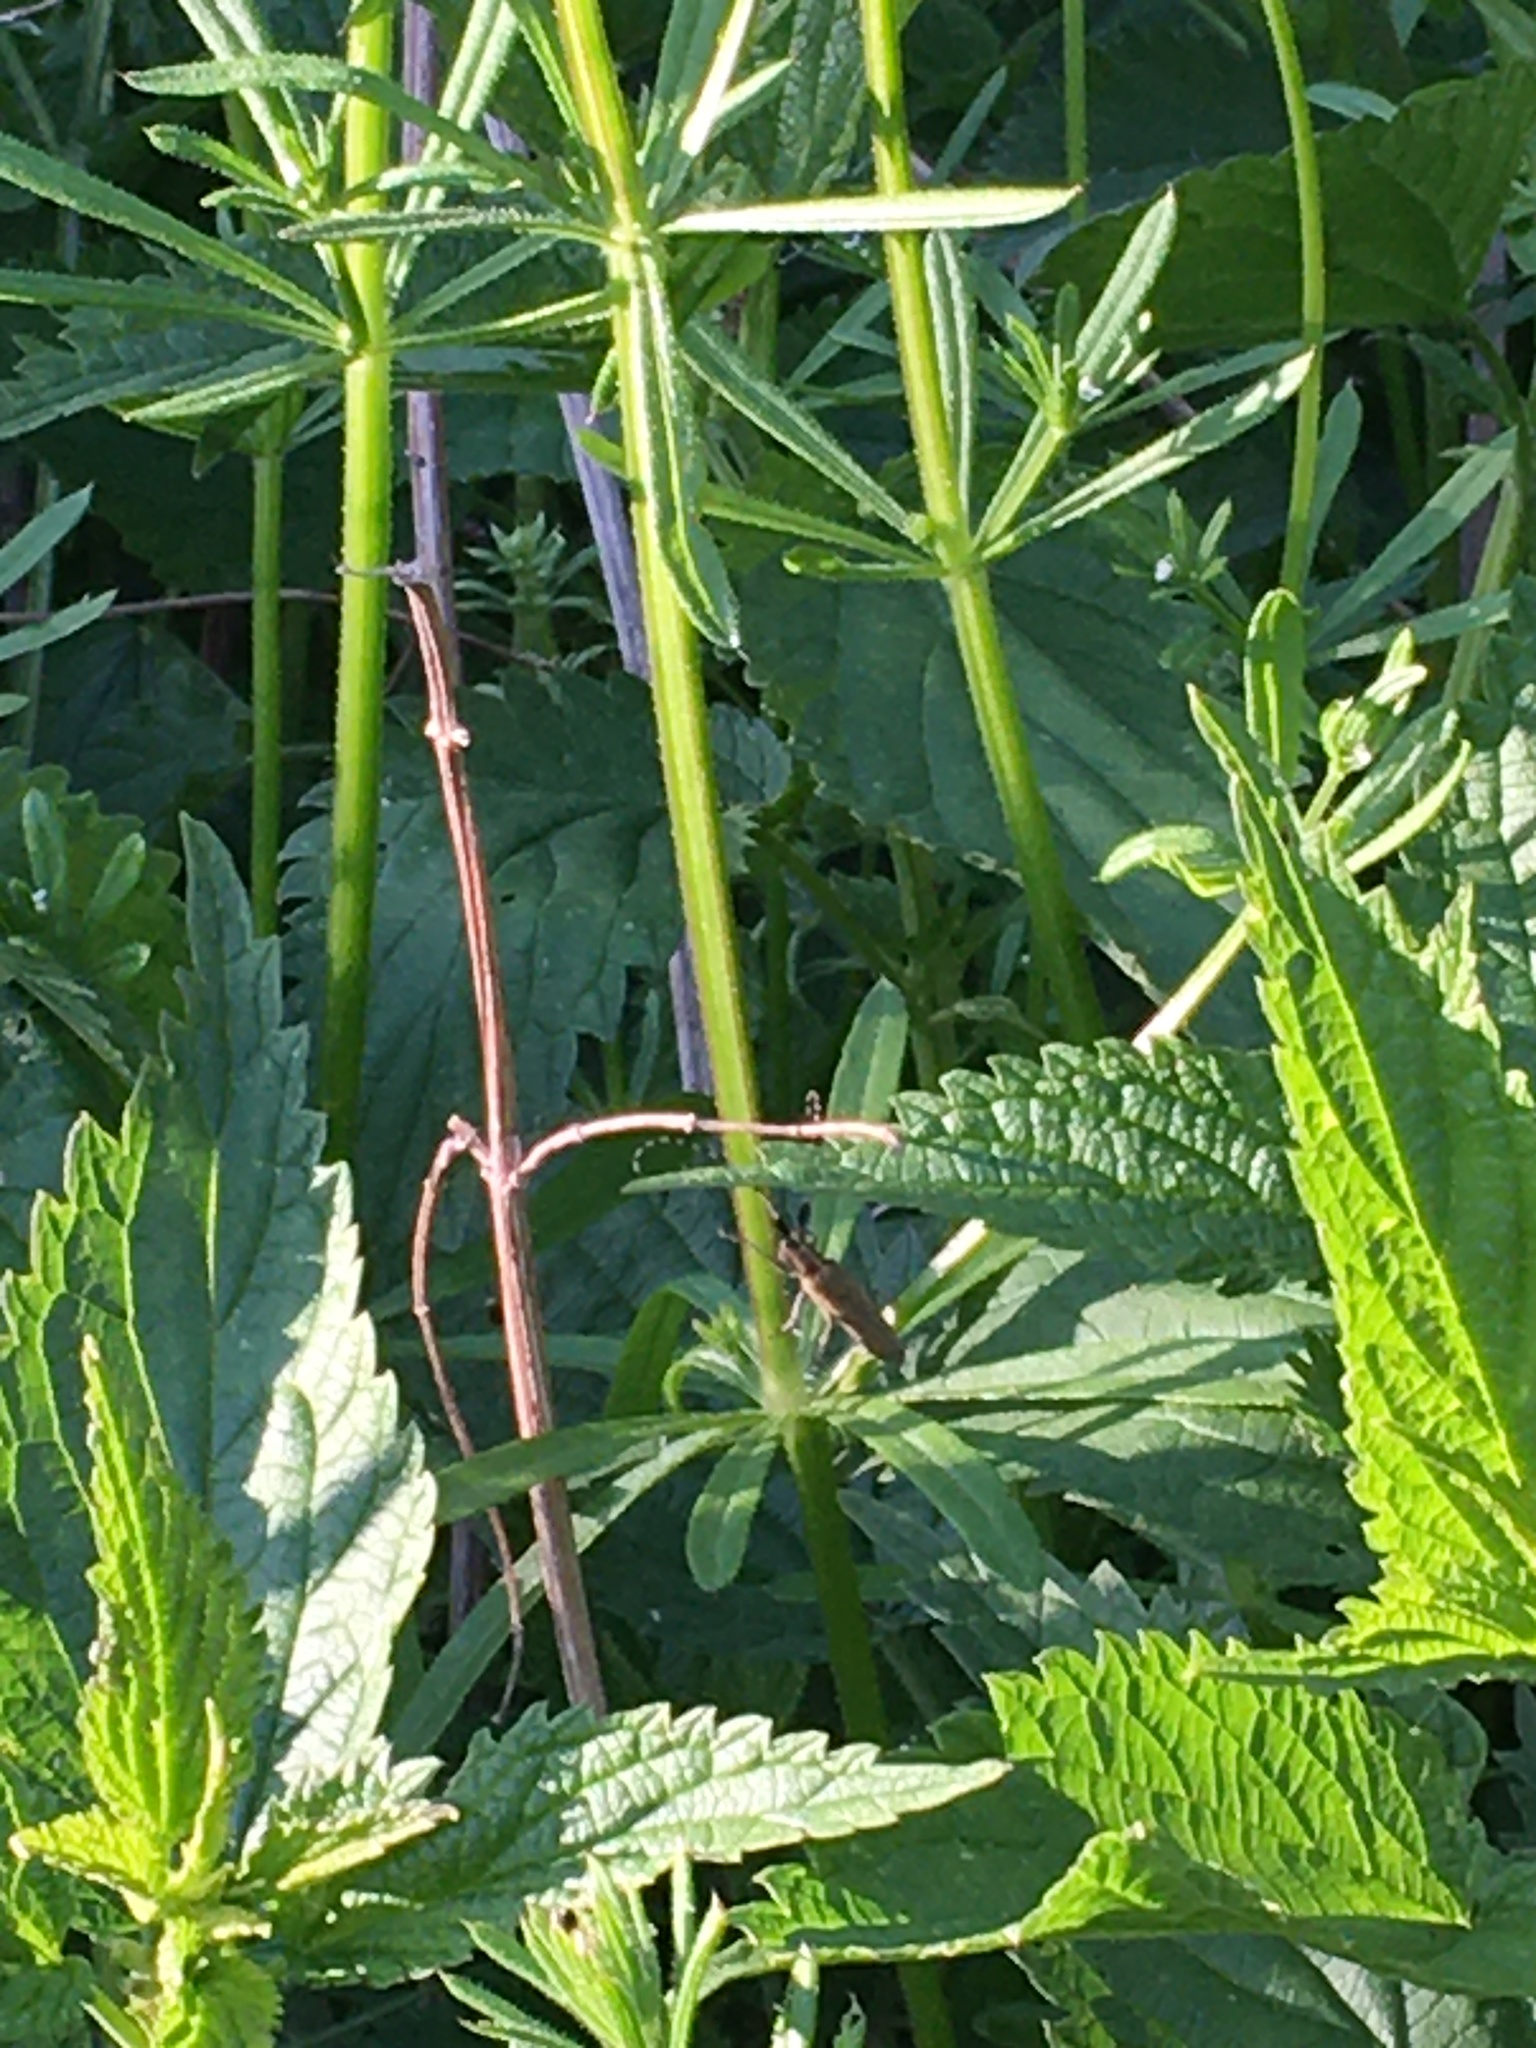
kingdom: Animalia
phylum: Arthropoda
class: Insecta
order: Coleoptera
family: Cerambycidae
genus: Agapanthia
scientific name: Agapanthia villosoviridescens
